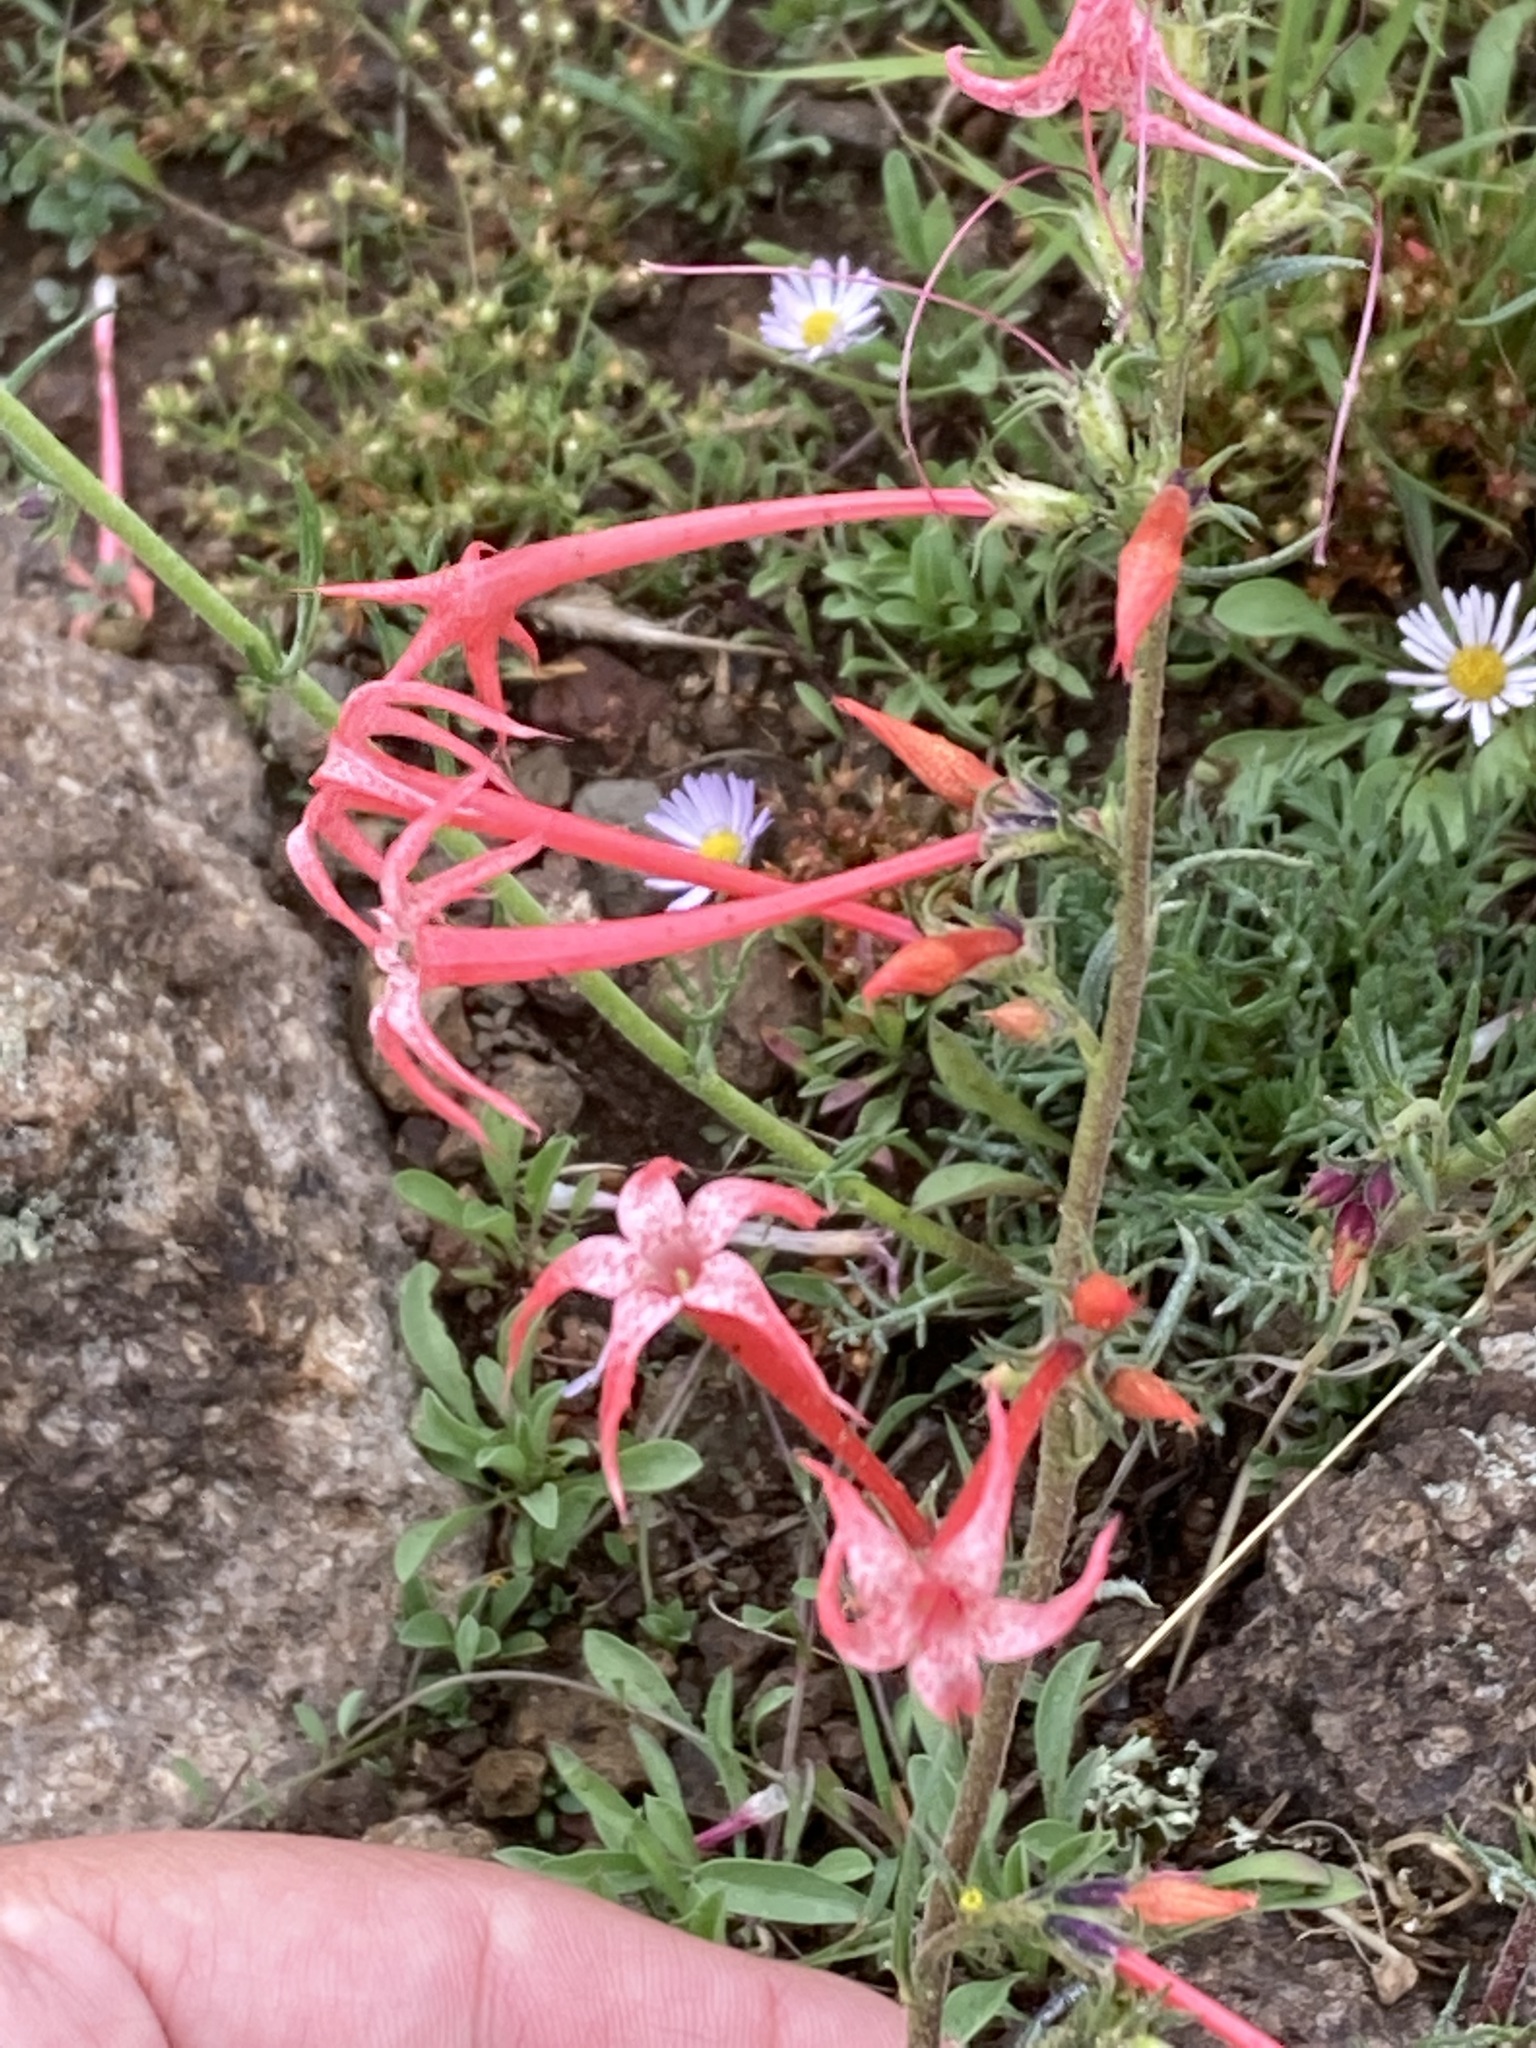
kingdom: Plantae
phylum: Tracheophyta
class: Magnoliopsida
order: Ericales
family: Polemoniaceae
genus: Ipomopsis
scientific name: Ipomopsis aggregata
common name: Scarlet gilia
